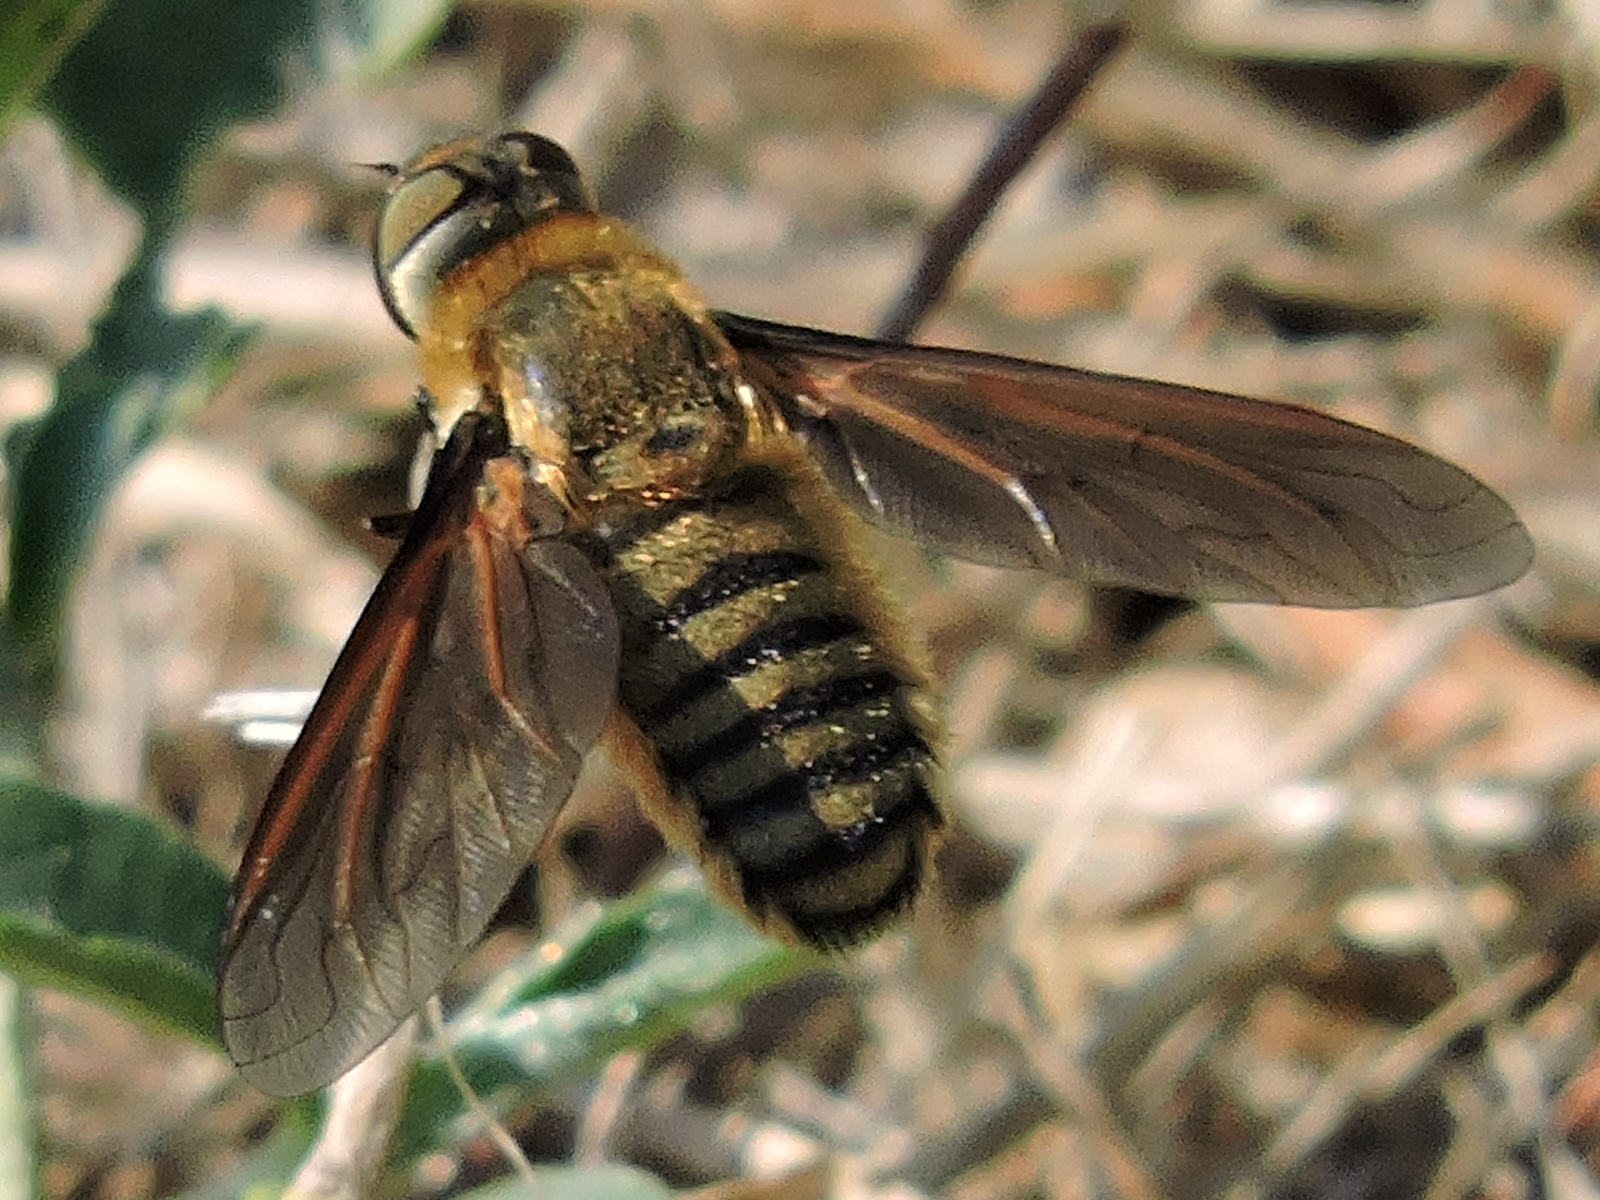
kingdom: Animalia
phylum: Arthropoda
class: Insecta
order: Diptera
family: Bombyliidae
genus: Poecilanthrax
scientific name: Poecilanthrax lucifer
